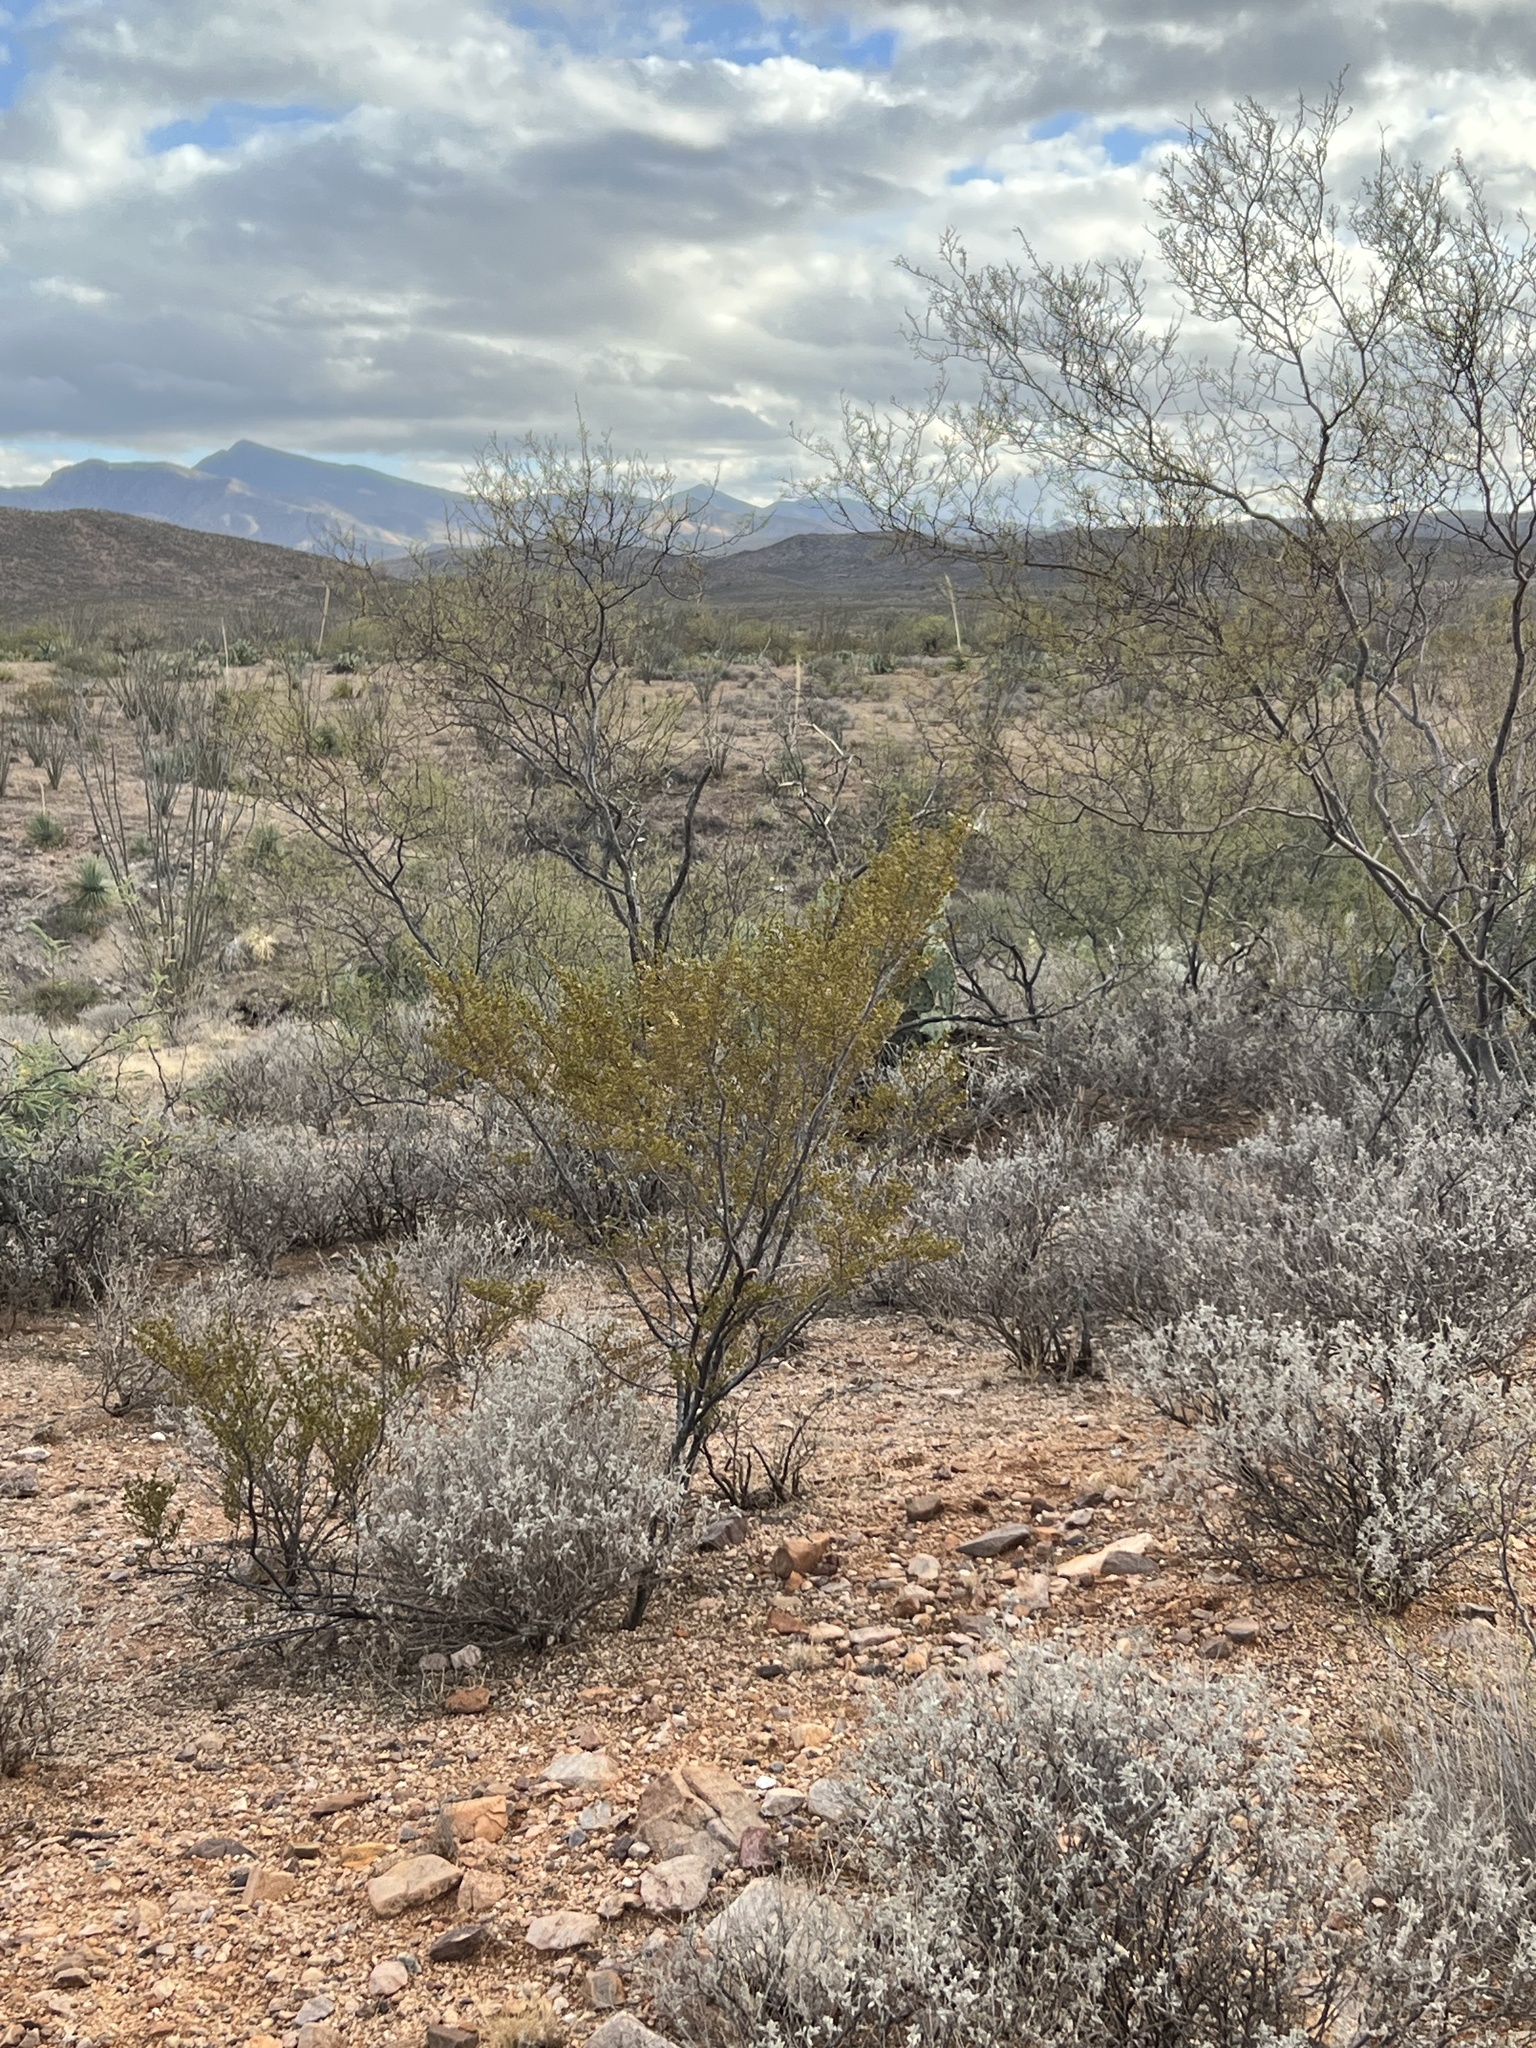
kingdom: Plantae
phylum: Tracheophyta
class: Magnoliopsida
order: Zygophyllales
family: Zygophyllaceae
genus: Larrea
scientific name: Larrea tridentata
